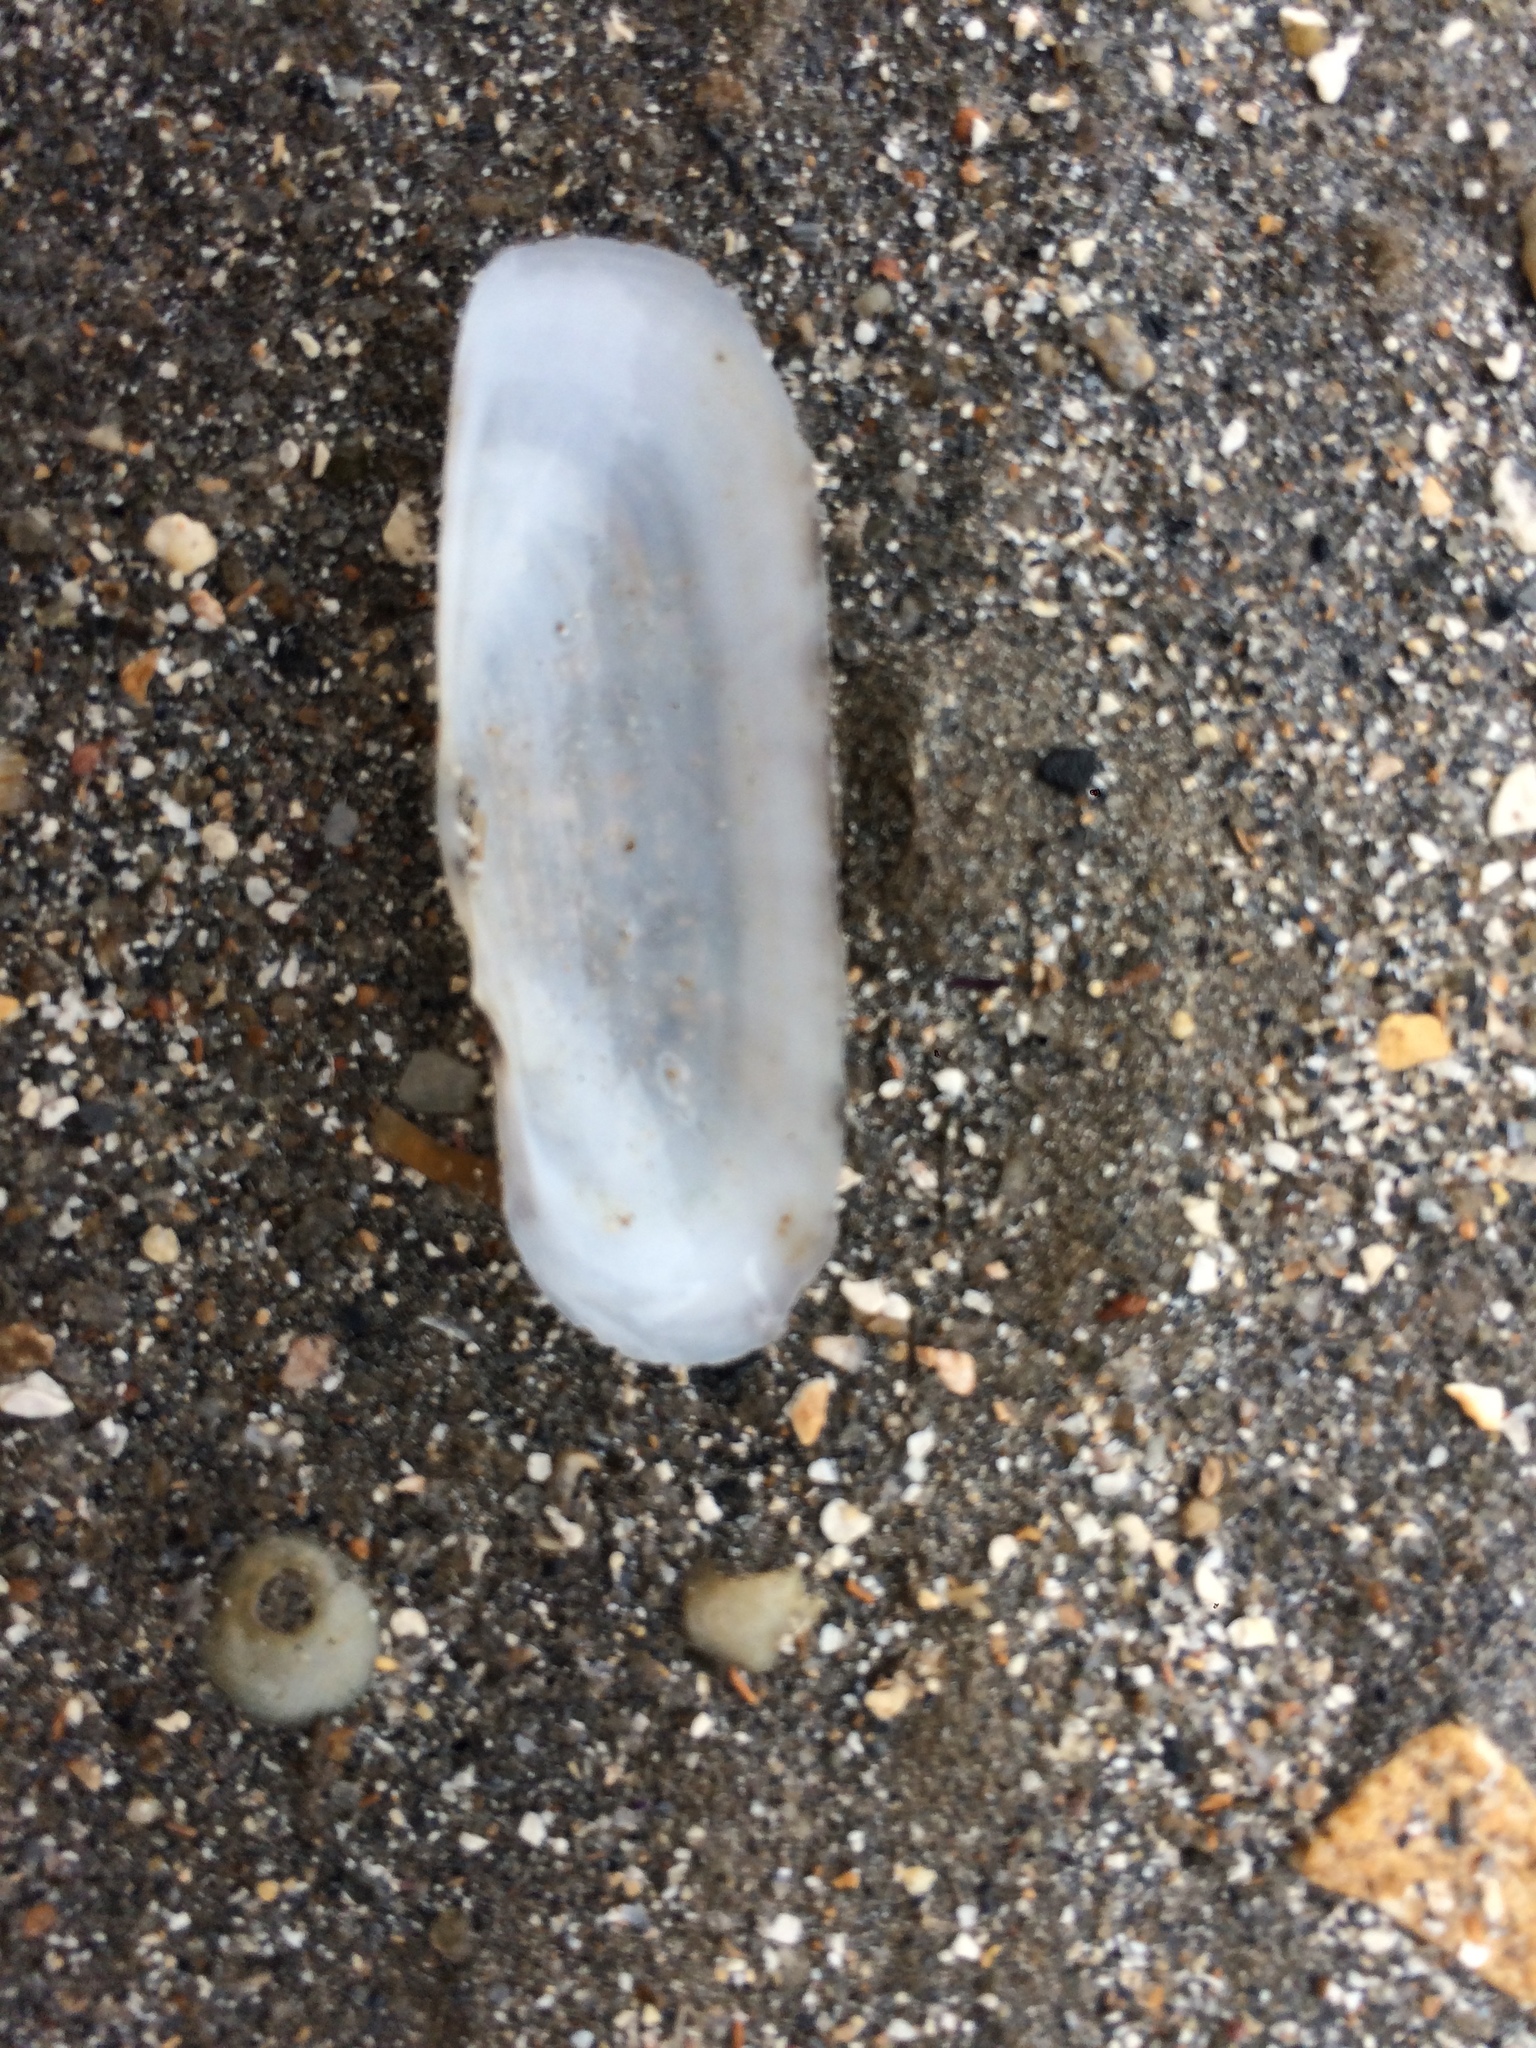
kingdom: Animalia
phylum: Mollusca
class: Bivalvia
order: Cardiida
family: Solecurtidae
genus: Tagelus
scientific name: Tagelus plebeius
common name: Stout tagelus
